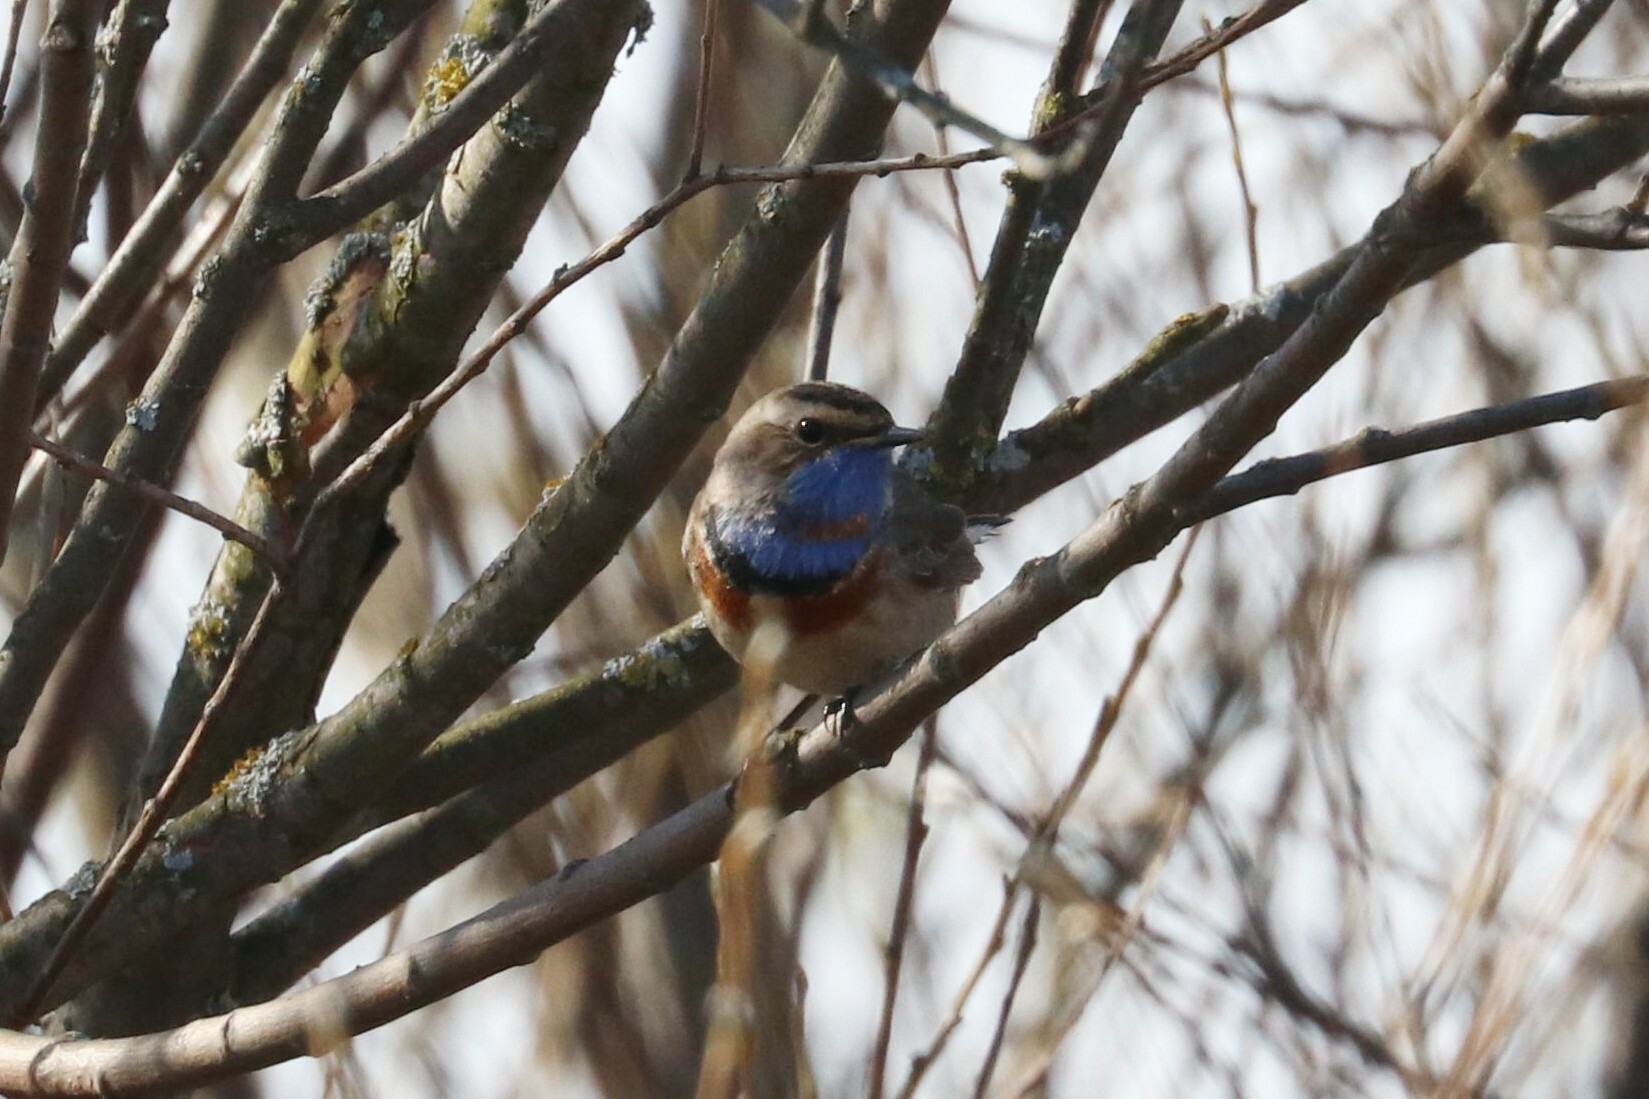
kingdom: Animalia
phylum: Chordata
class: Aves
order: Passeriformes
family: Muscicapidae
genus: Luscinia
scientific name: Luscinia svecica
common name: Bluethroat
